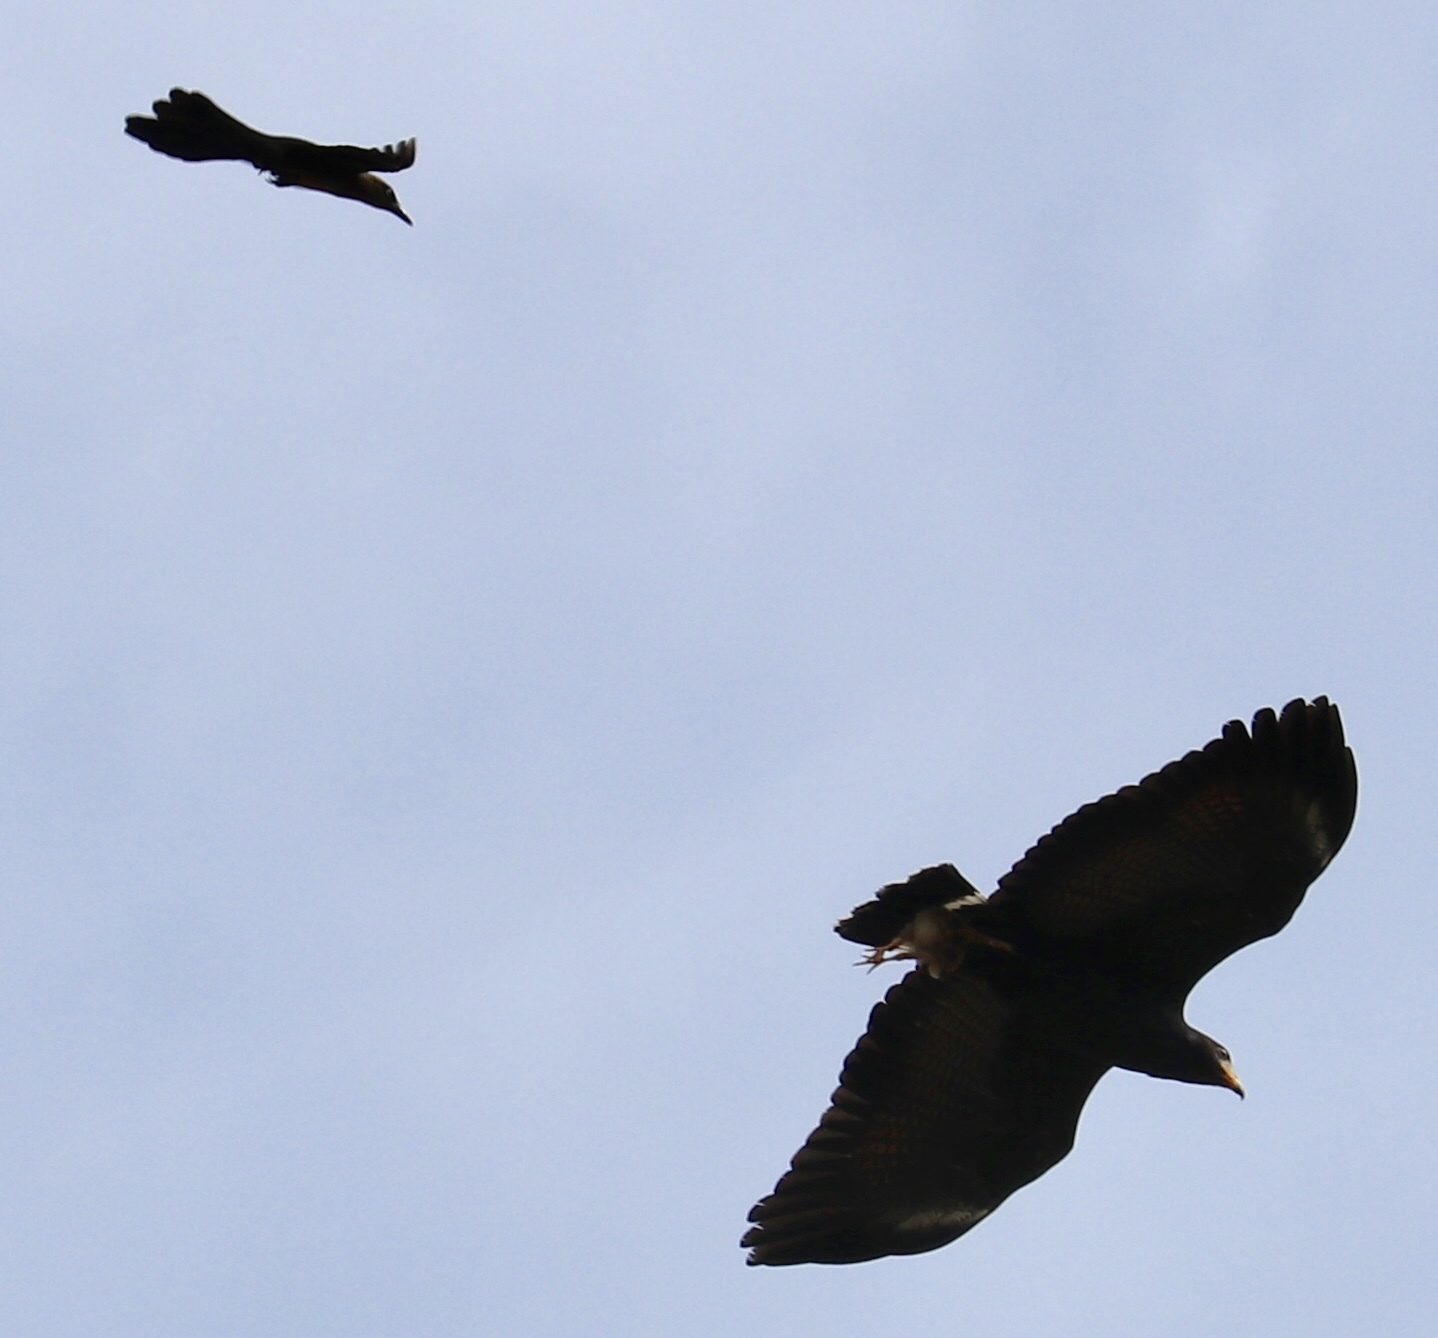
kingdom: Animalia
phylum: Chordata
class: Aves
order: Accipitriformes
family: Accipitridae
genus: Buteogallus
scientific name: Buteogallus anthracinus
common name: Common black hawk
